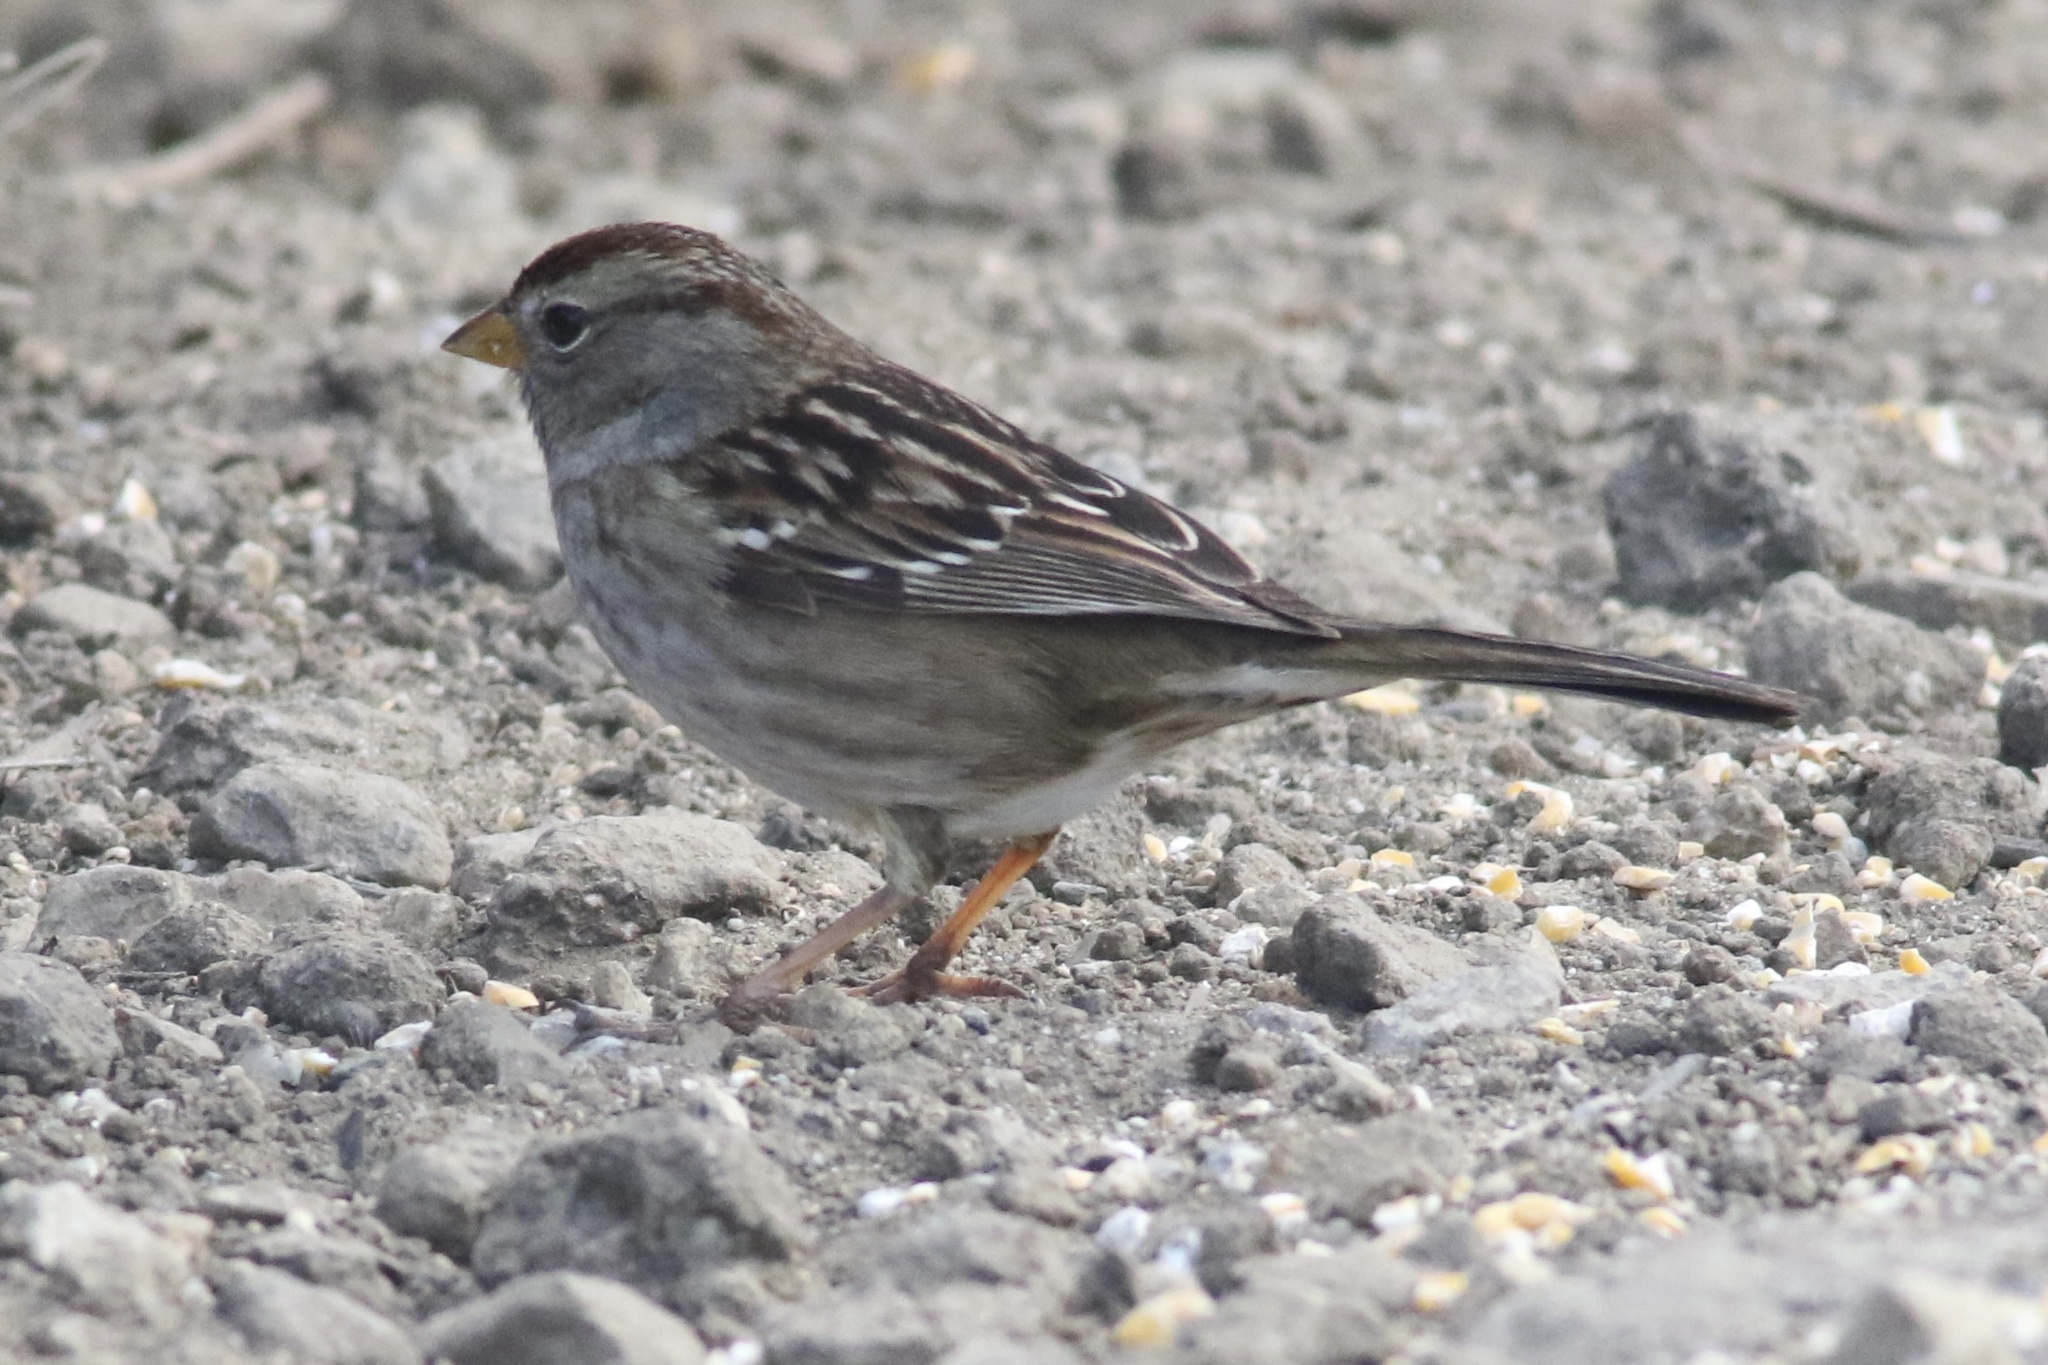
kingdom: Animalia
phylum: Chordata
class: Aves
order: Passeriformes
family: Passerellidae
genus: Zonotrichia
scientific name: Zonotrichia leucophrys
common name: White-crowned sparrow
